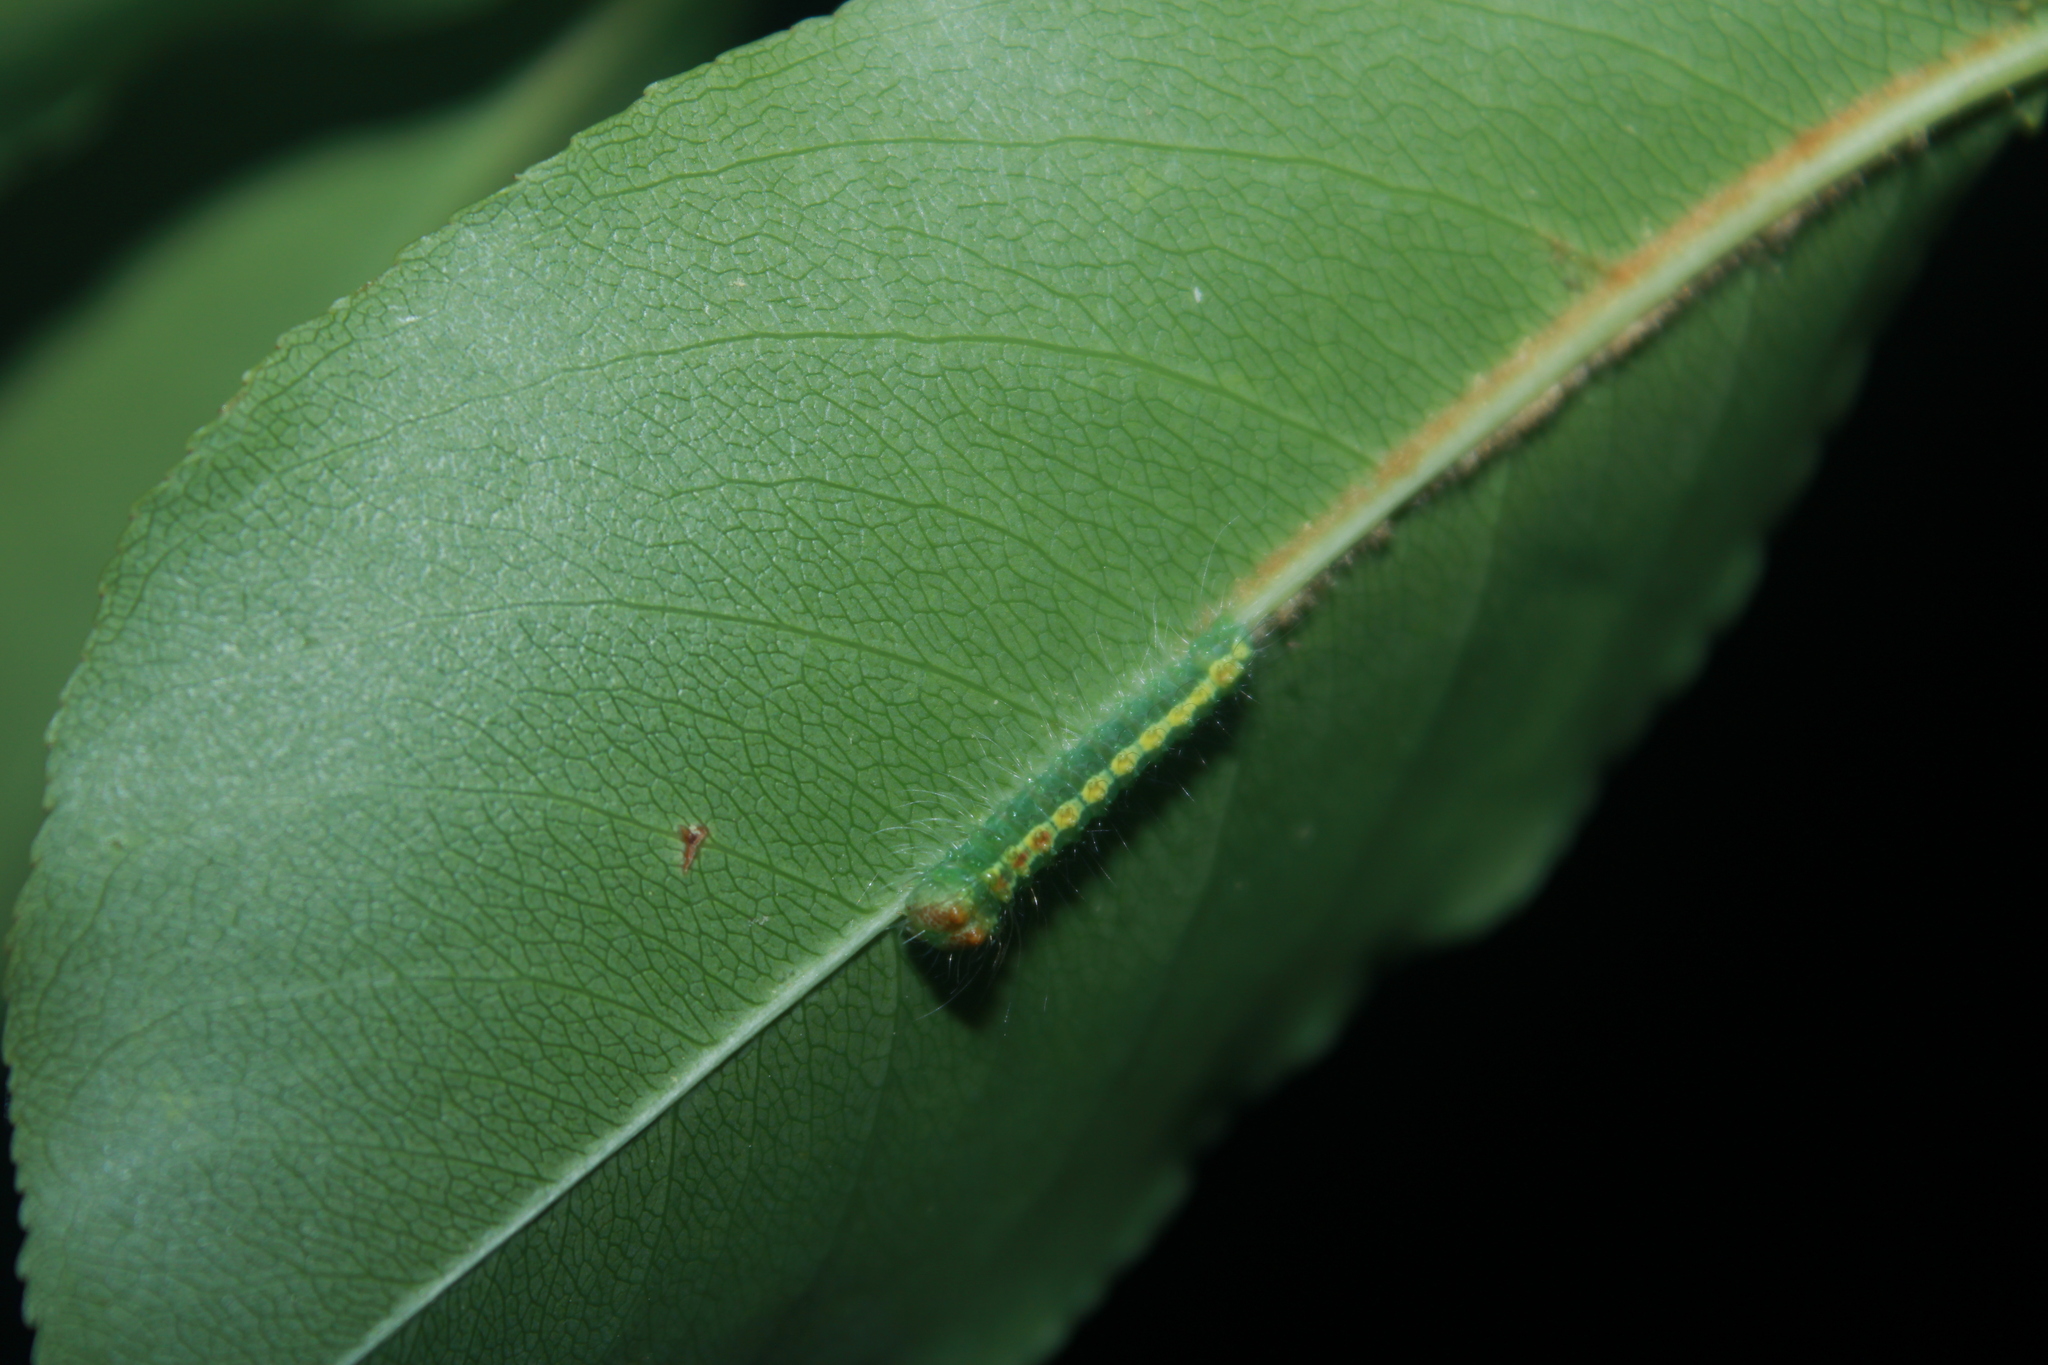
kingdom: Animalia
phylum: Arthropoda
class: Insecta
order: Lepidoptera
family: Noctuidae
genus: Acronicta
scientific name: Acronicta hasta
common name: Cherry dagger
